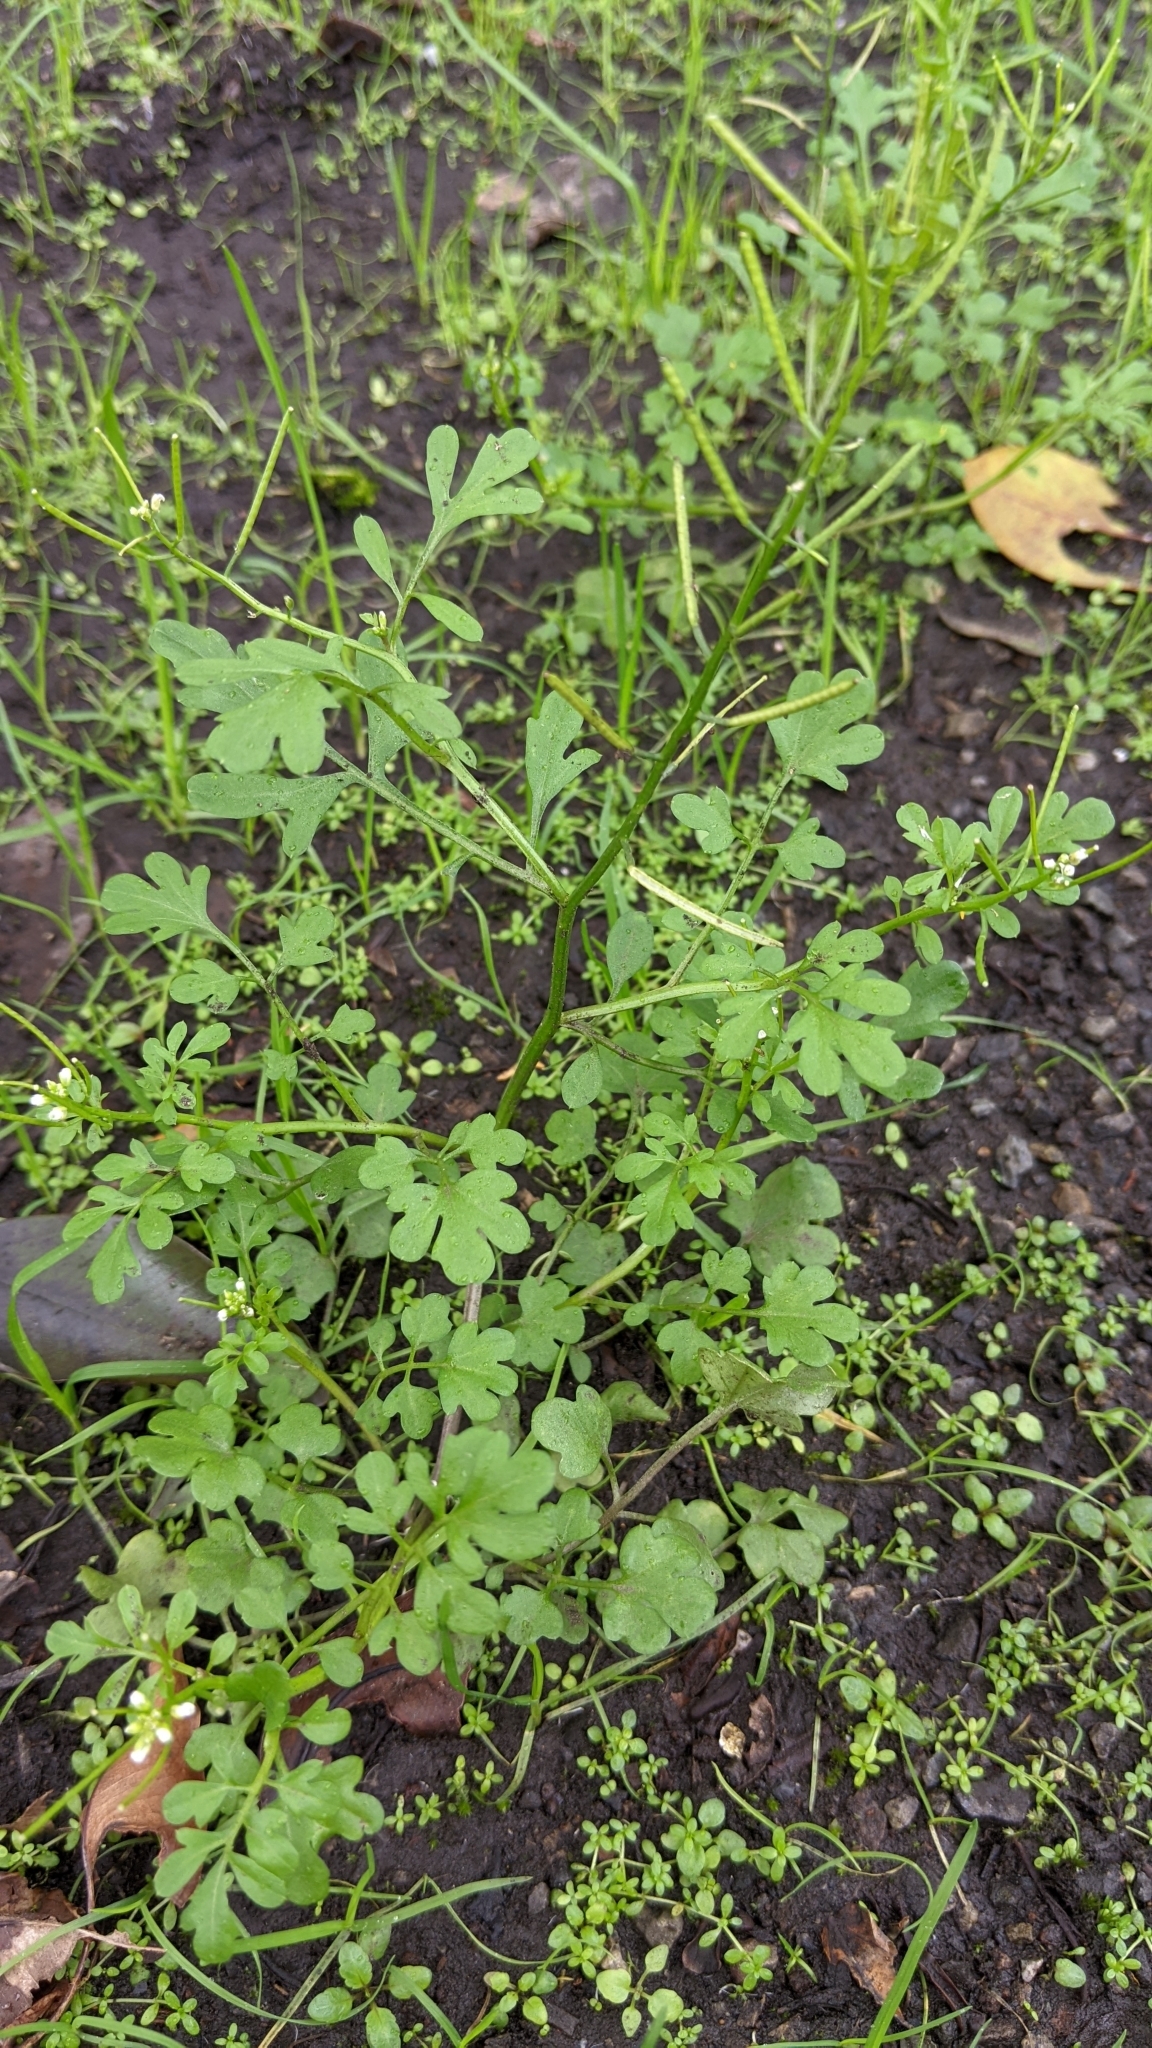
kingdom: Plantae
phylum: Tracheophyta
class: Magnoliopsida
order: Brassicales
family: Brassicaceae
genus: Cardamine
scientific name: Cardamine flexuosa
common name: Woodland bittercress
